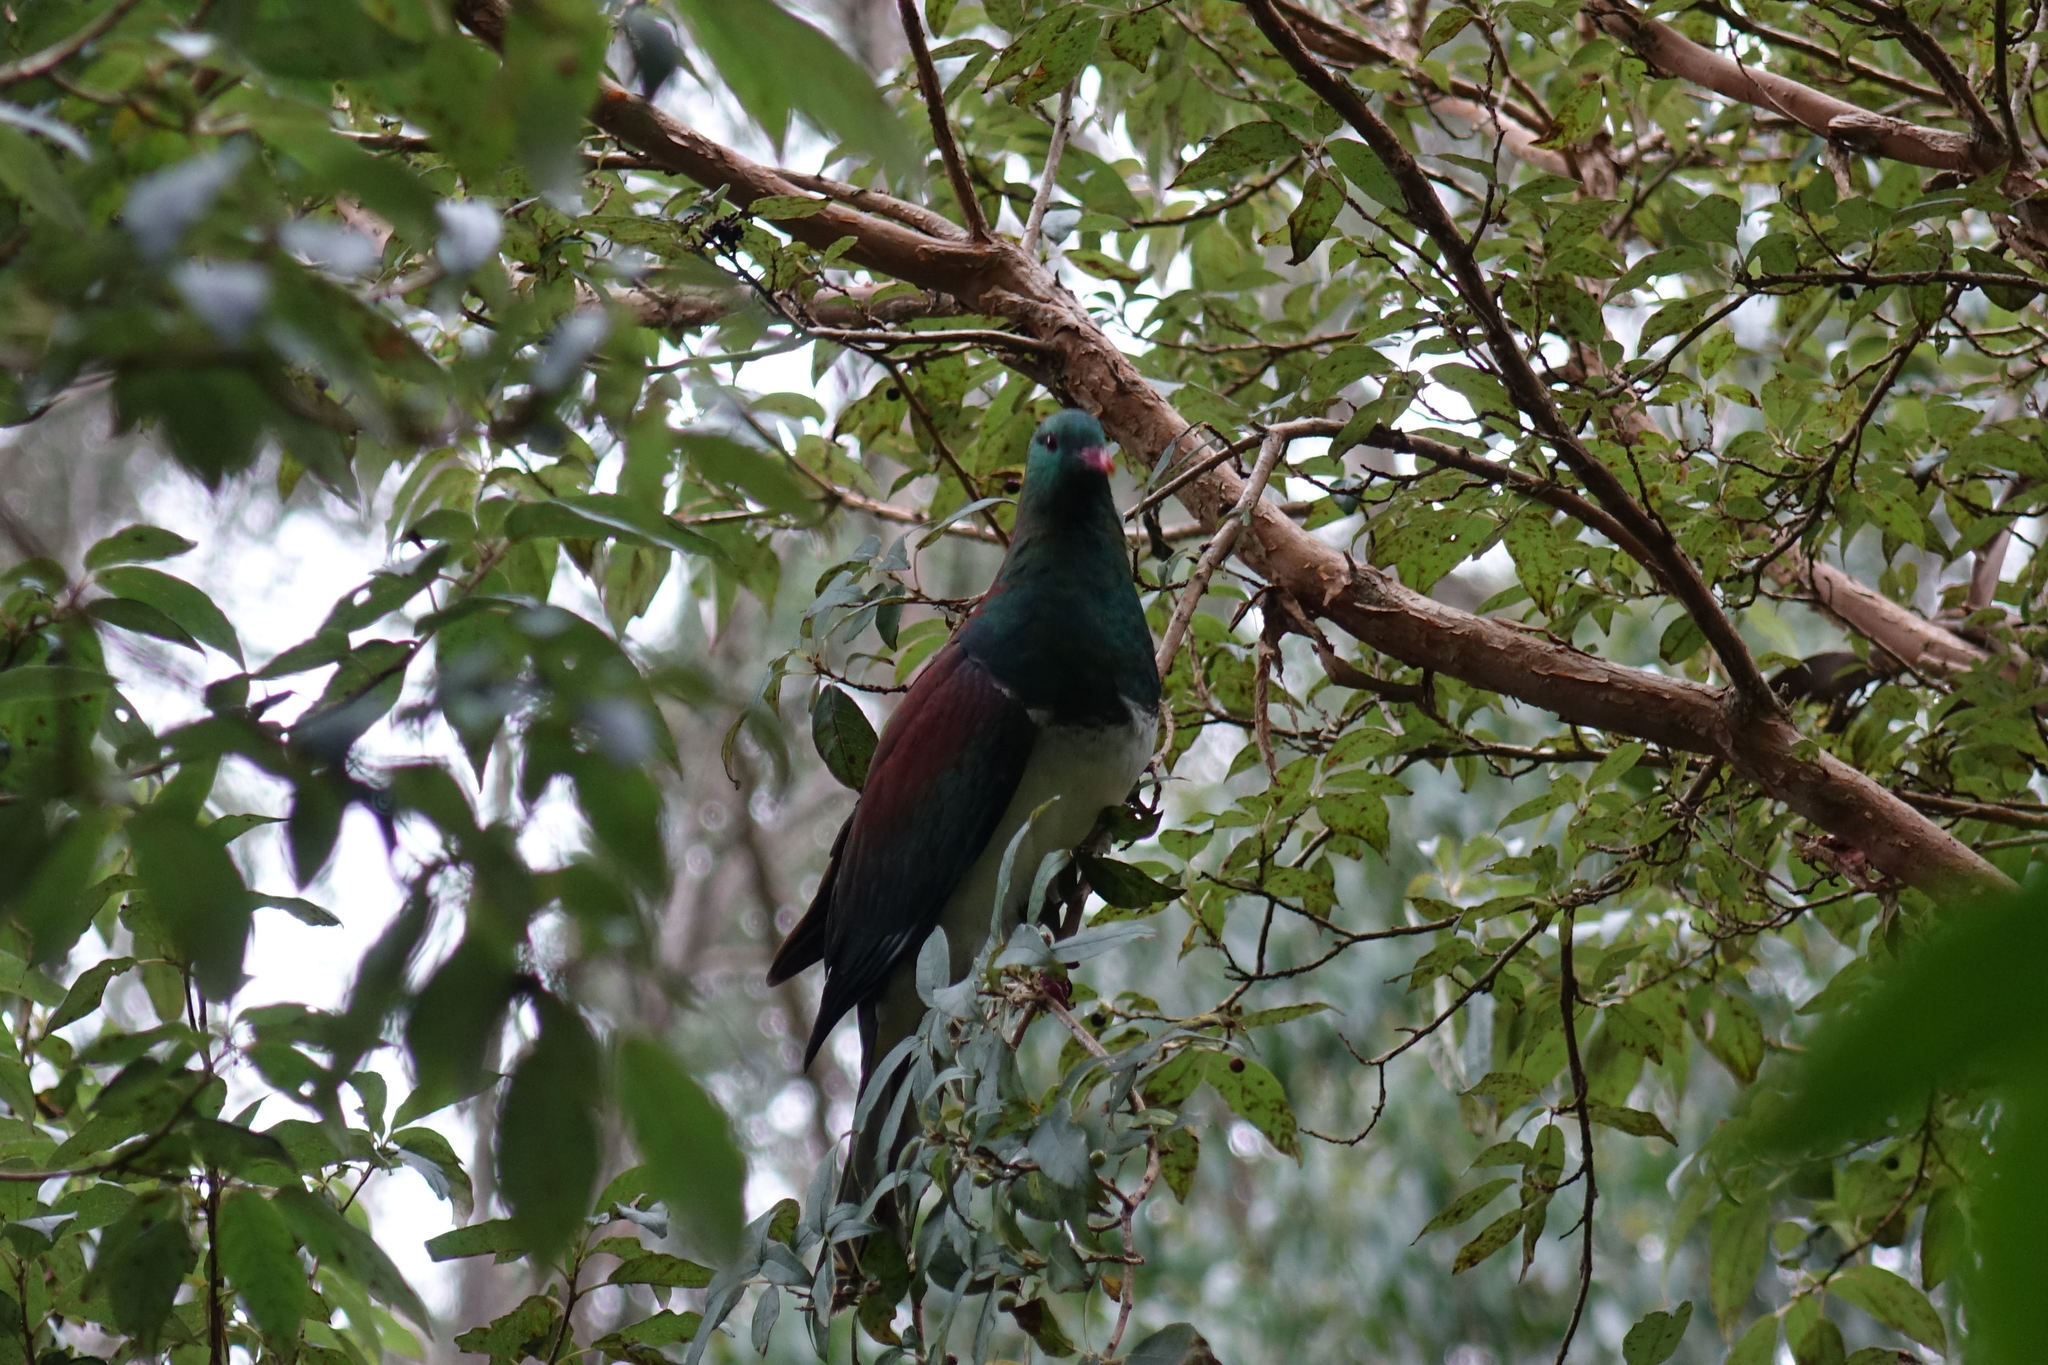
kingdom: Animalia
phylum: Chordata
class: Aves
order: Columbiformes
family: Columbidae
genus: Hemiphaga
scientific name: Hemiphaga novaeseelandiae
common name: New zealand pigeon
